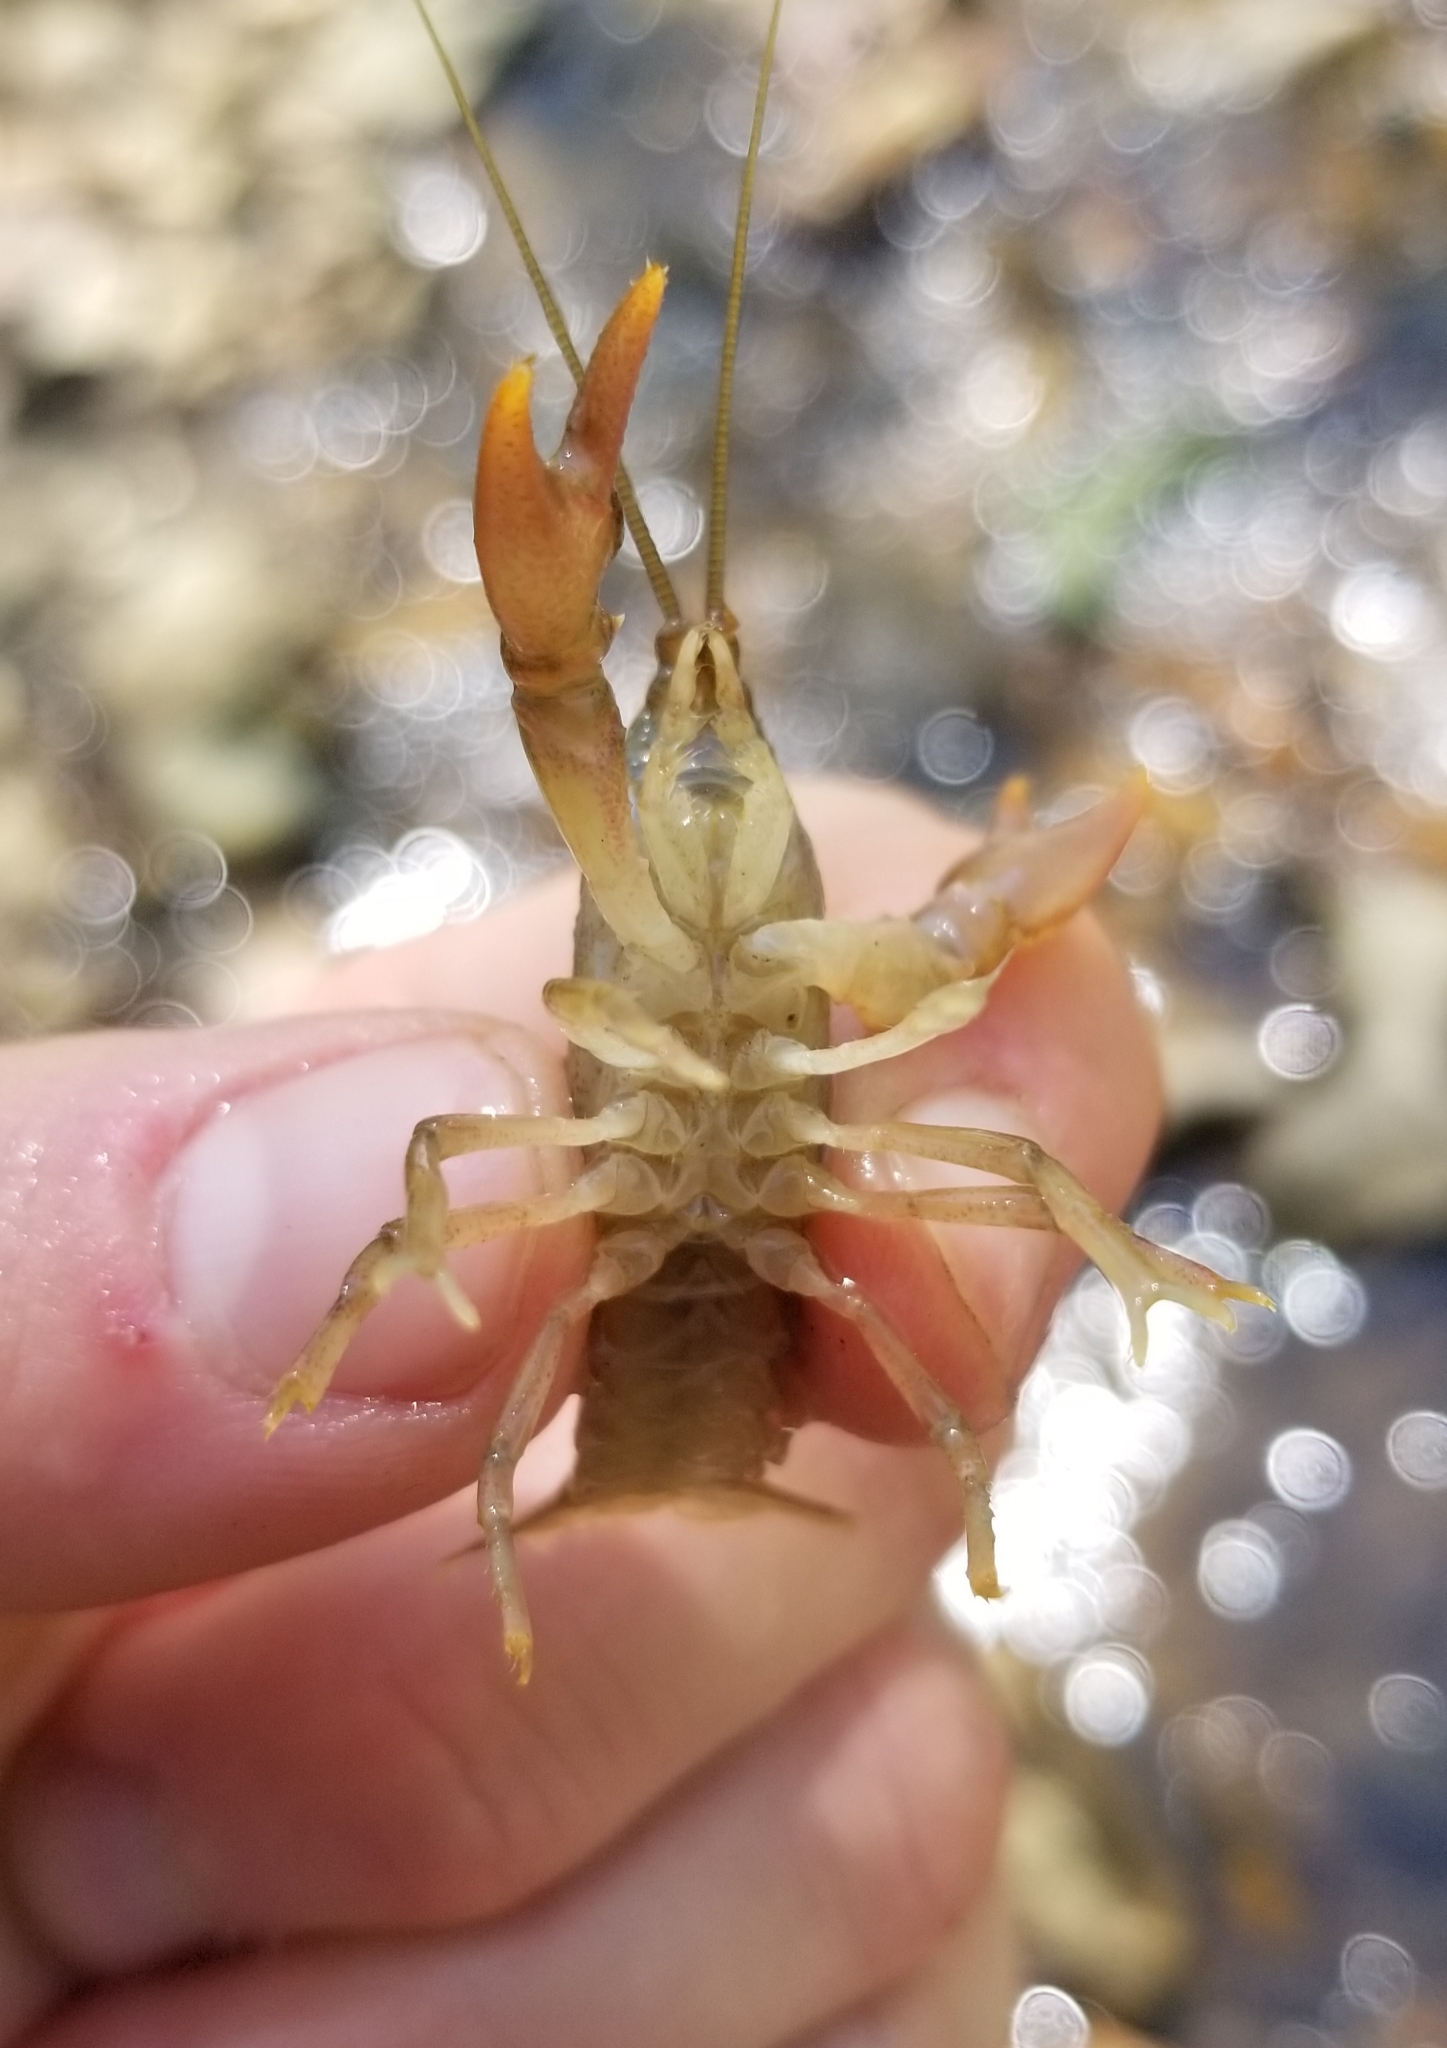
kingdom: Animalia
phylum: Arthropoda
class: Malacostraca
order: Decapoda
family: Cambaridae
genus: Cambarus
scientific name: Cambarus bartonii
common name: Appalachian brook crayfish
